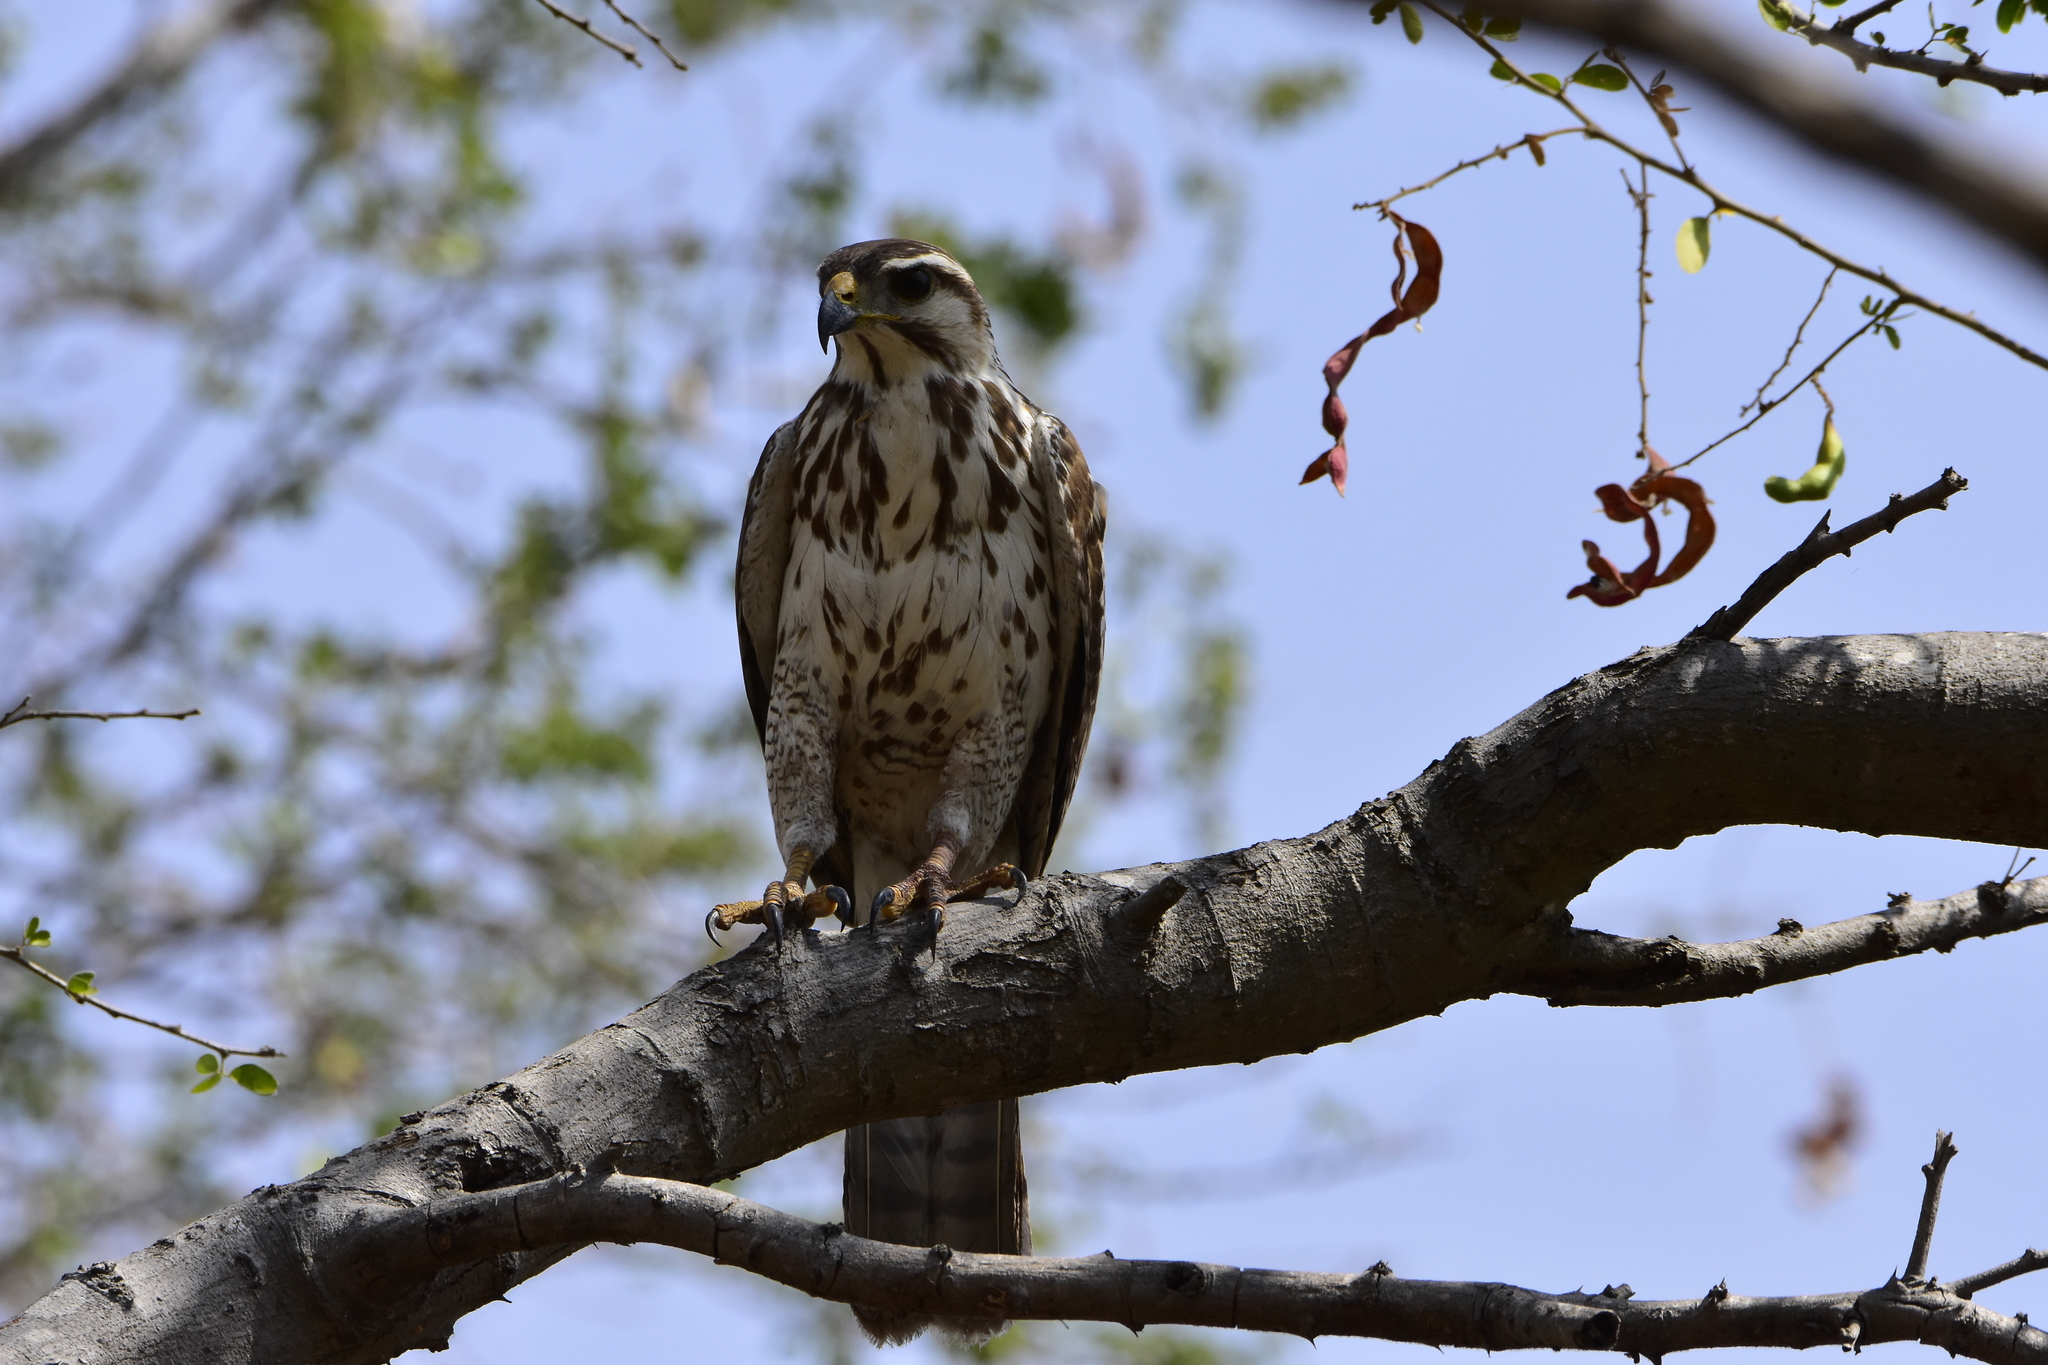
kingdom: Animalia
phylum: Chordata
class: Aves
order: Accipitriformes
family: Accipitridae
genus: Buteo
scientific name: Buteo nitidus
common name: Grey-lined hawk
